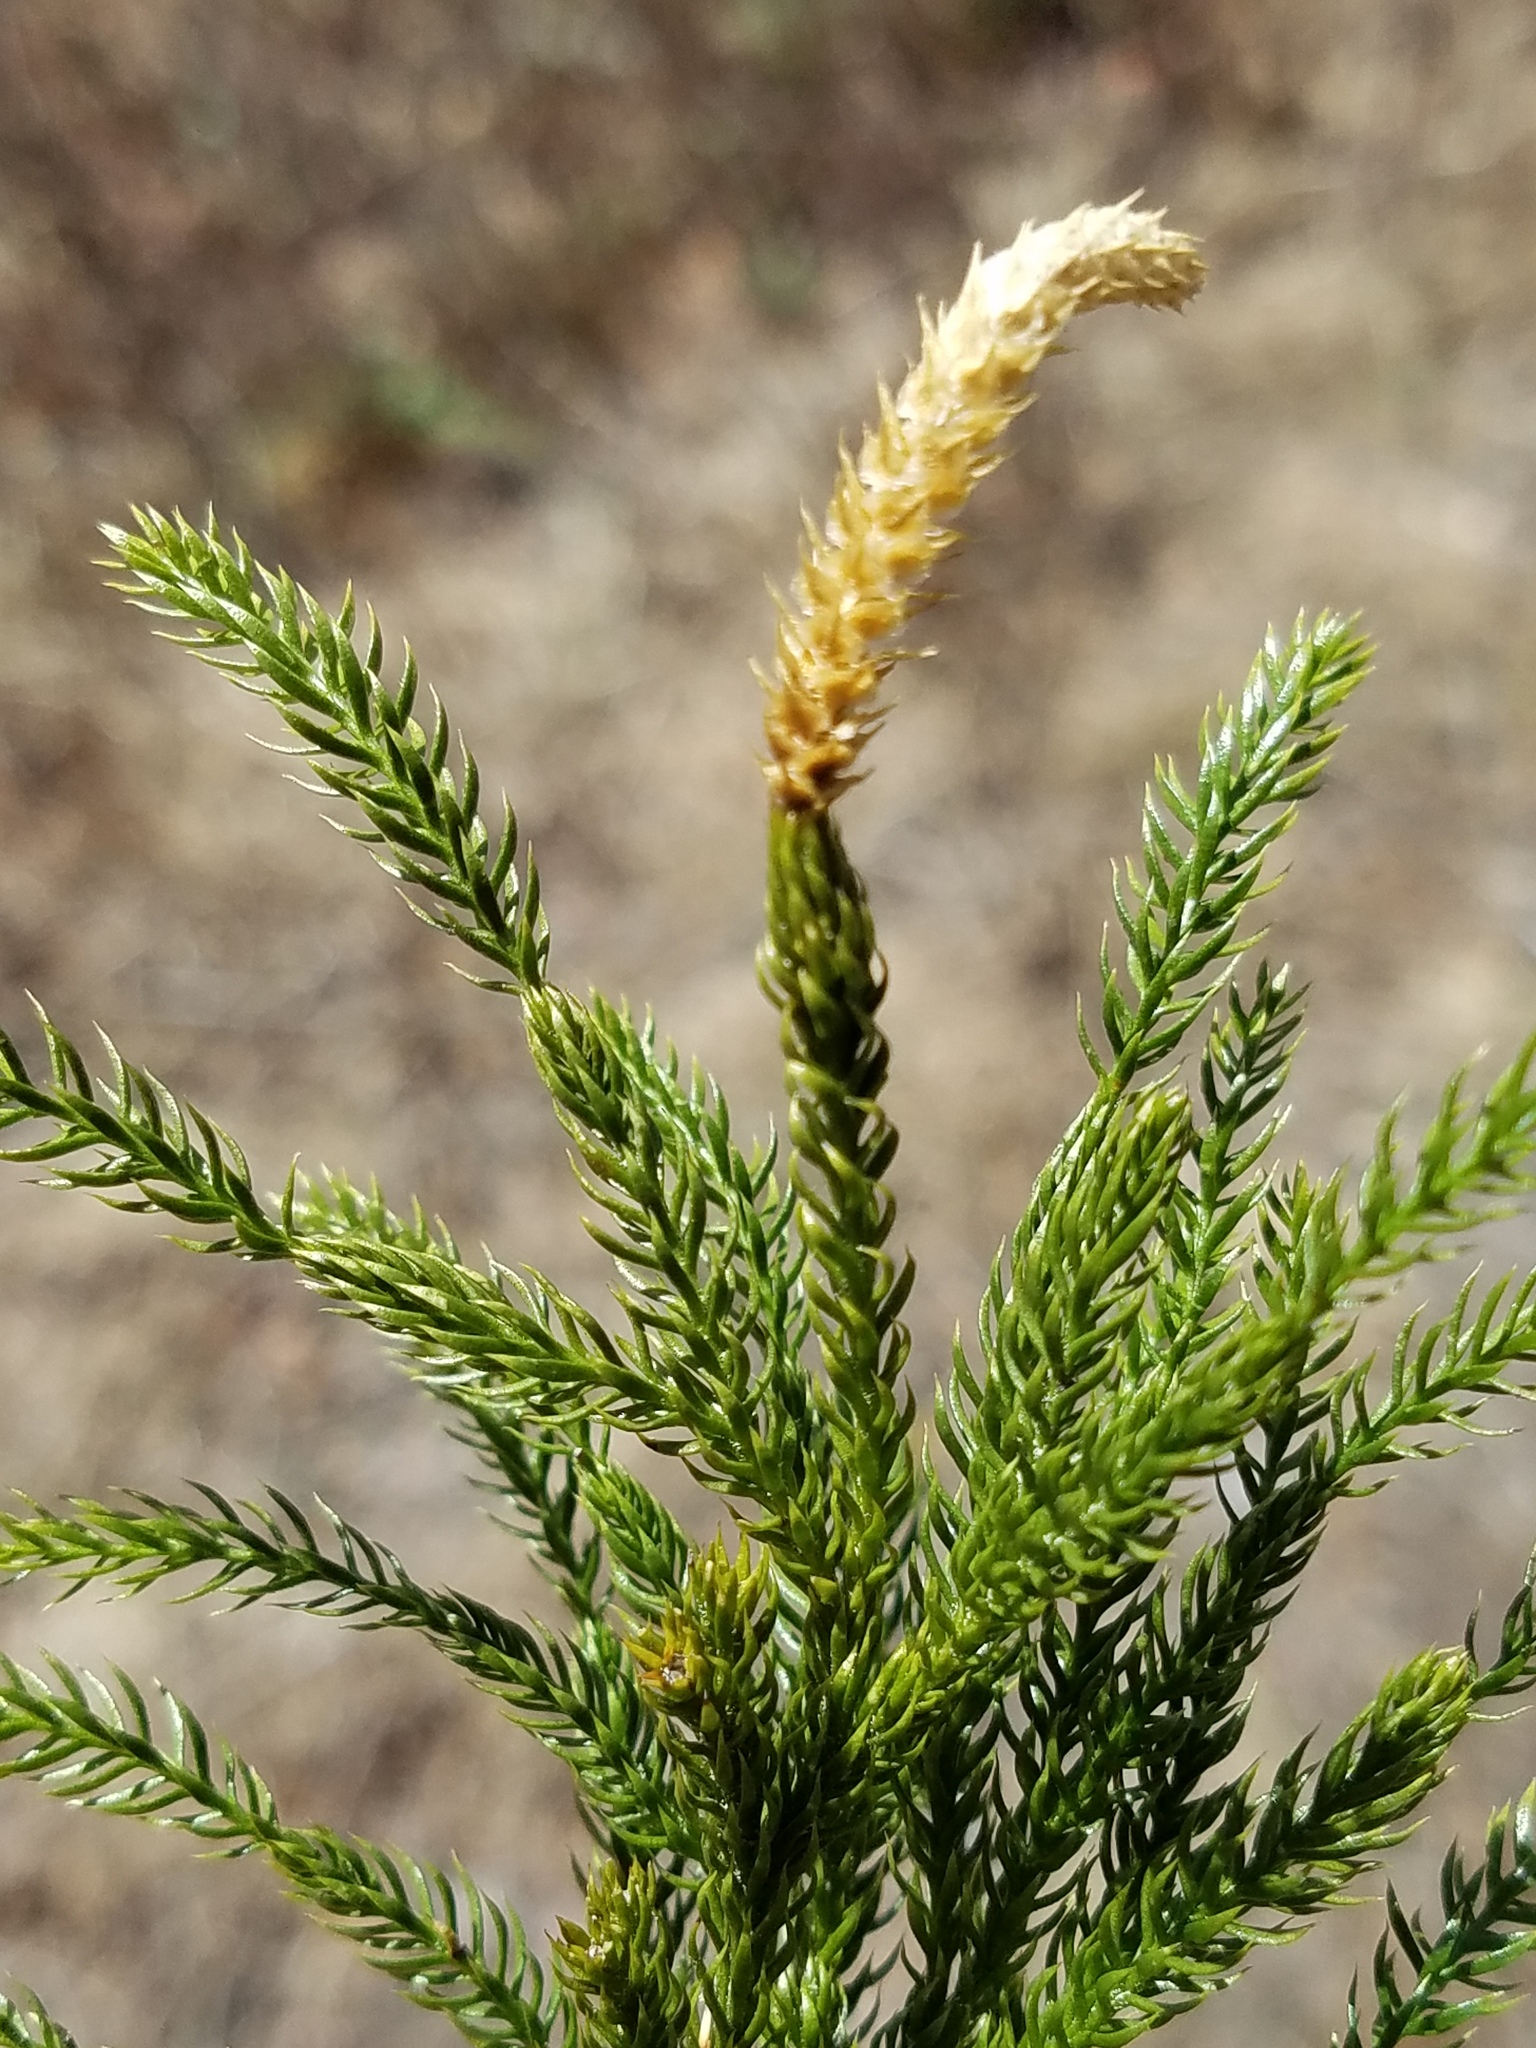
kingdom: Plantae
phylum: Tracheophyta
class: Lycopodiopsida
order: Lycopodiales
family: Lycopodiaceae
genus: Dendrolycopodium
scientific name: Dendrolycopodium hickeyi
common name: Hickey's clubmoss
